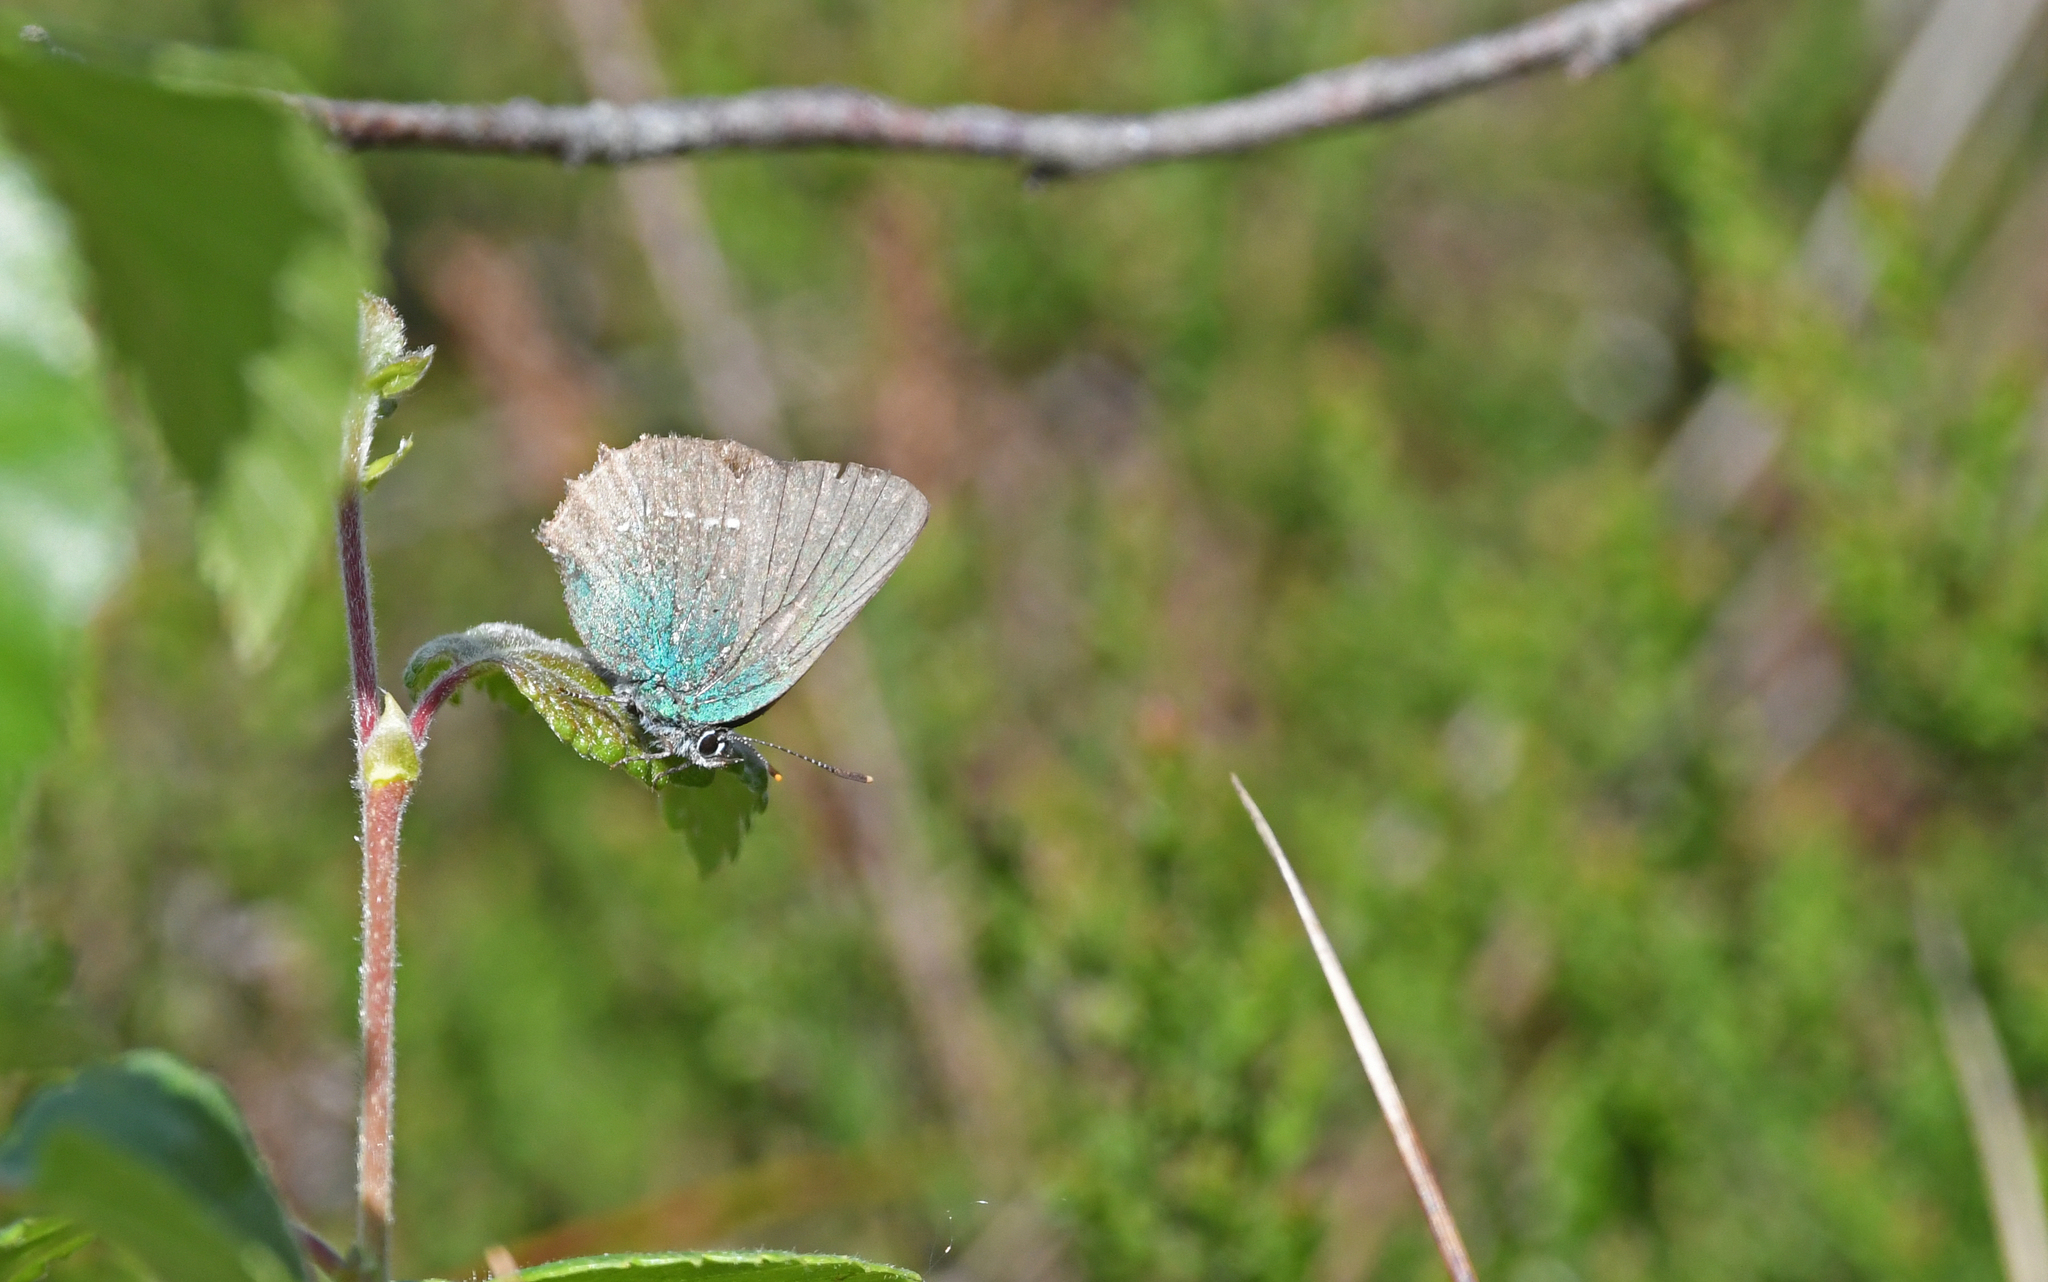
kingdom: Animalia
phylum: Arthropoda
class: Insecta
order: Lepidoptera
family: Lycaenidae
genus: Callophrys
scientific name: Callophrys rubi
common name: Green hairstreak
